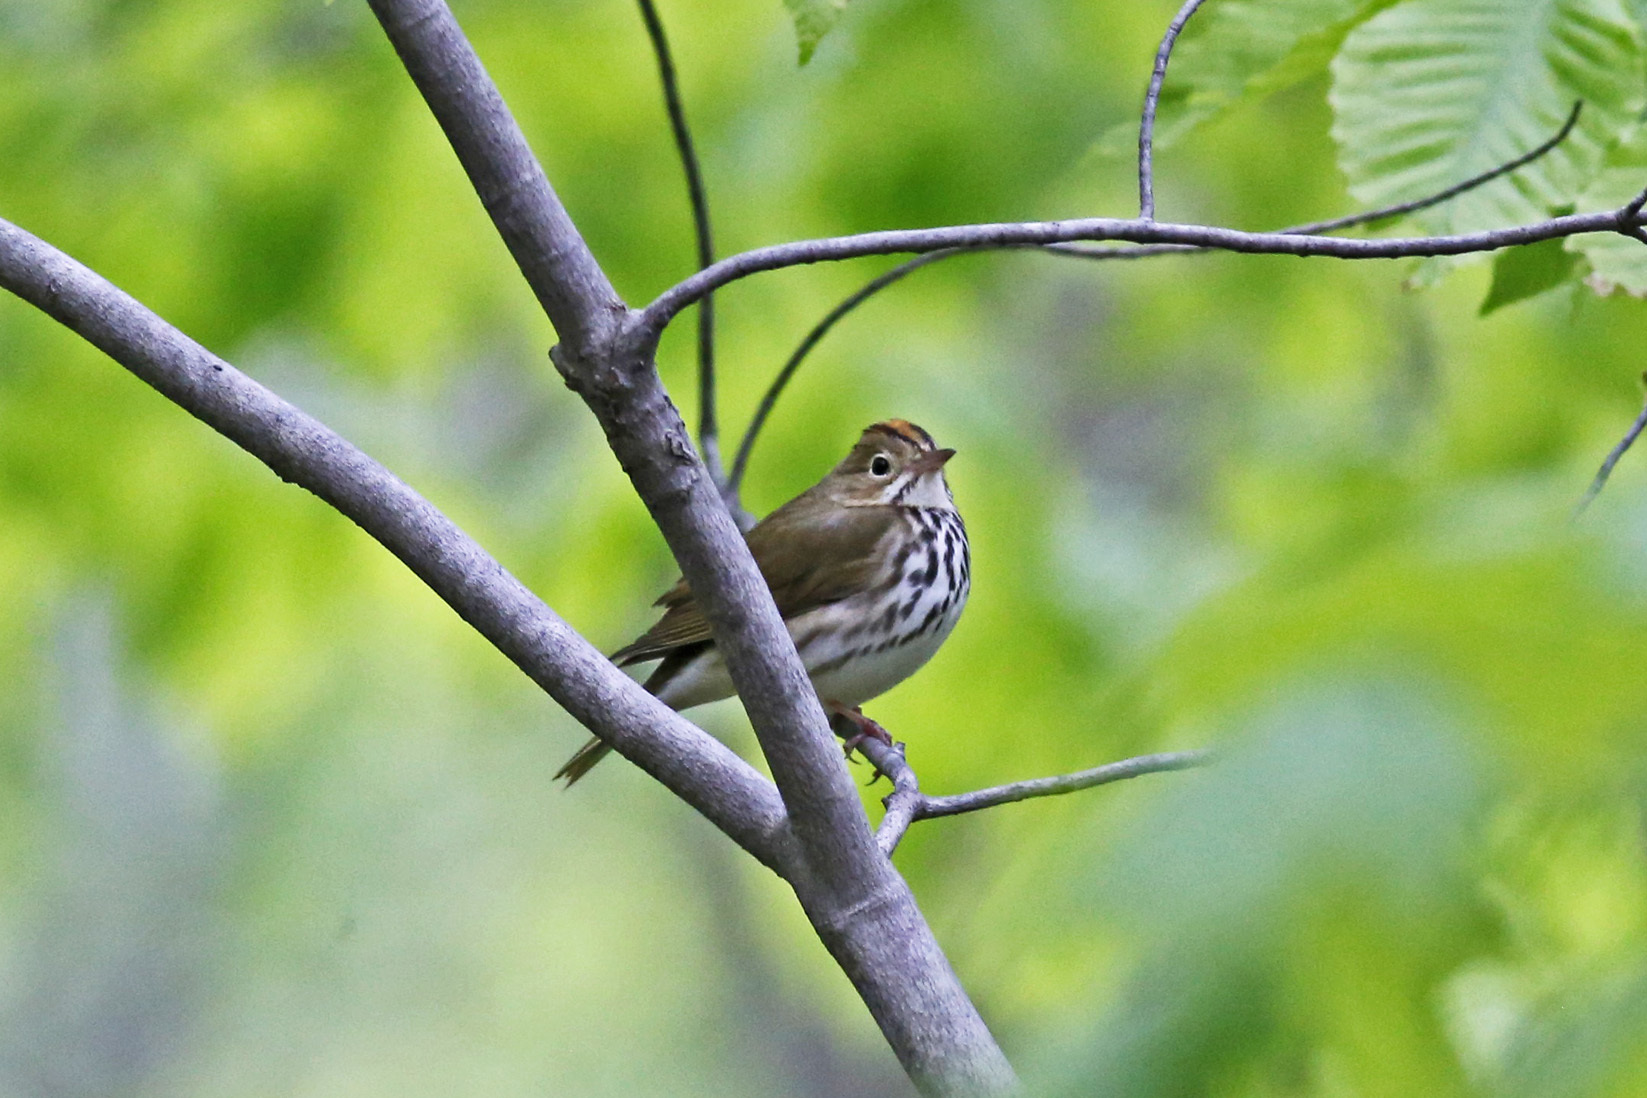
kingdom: Animalia
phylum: Chordata
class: Aves
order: Passeriformes
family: Parulidae
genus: Seiurus
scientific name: Seiurus aurocapilla
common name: Ovenbird
